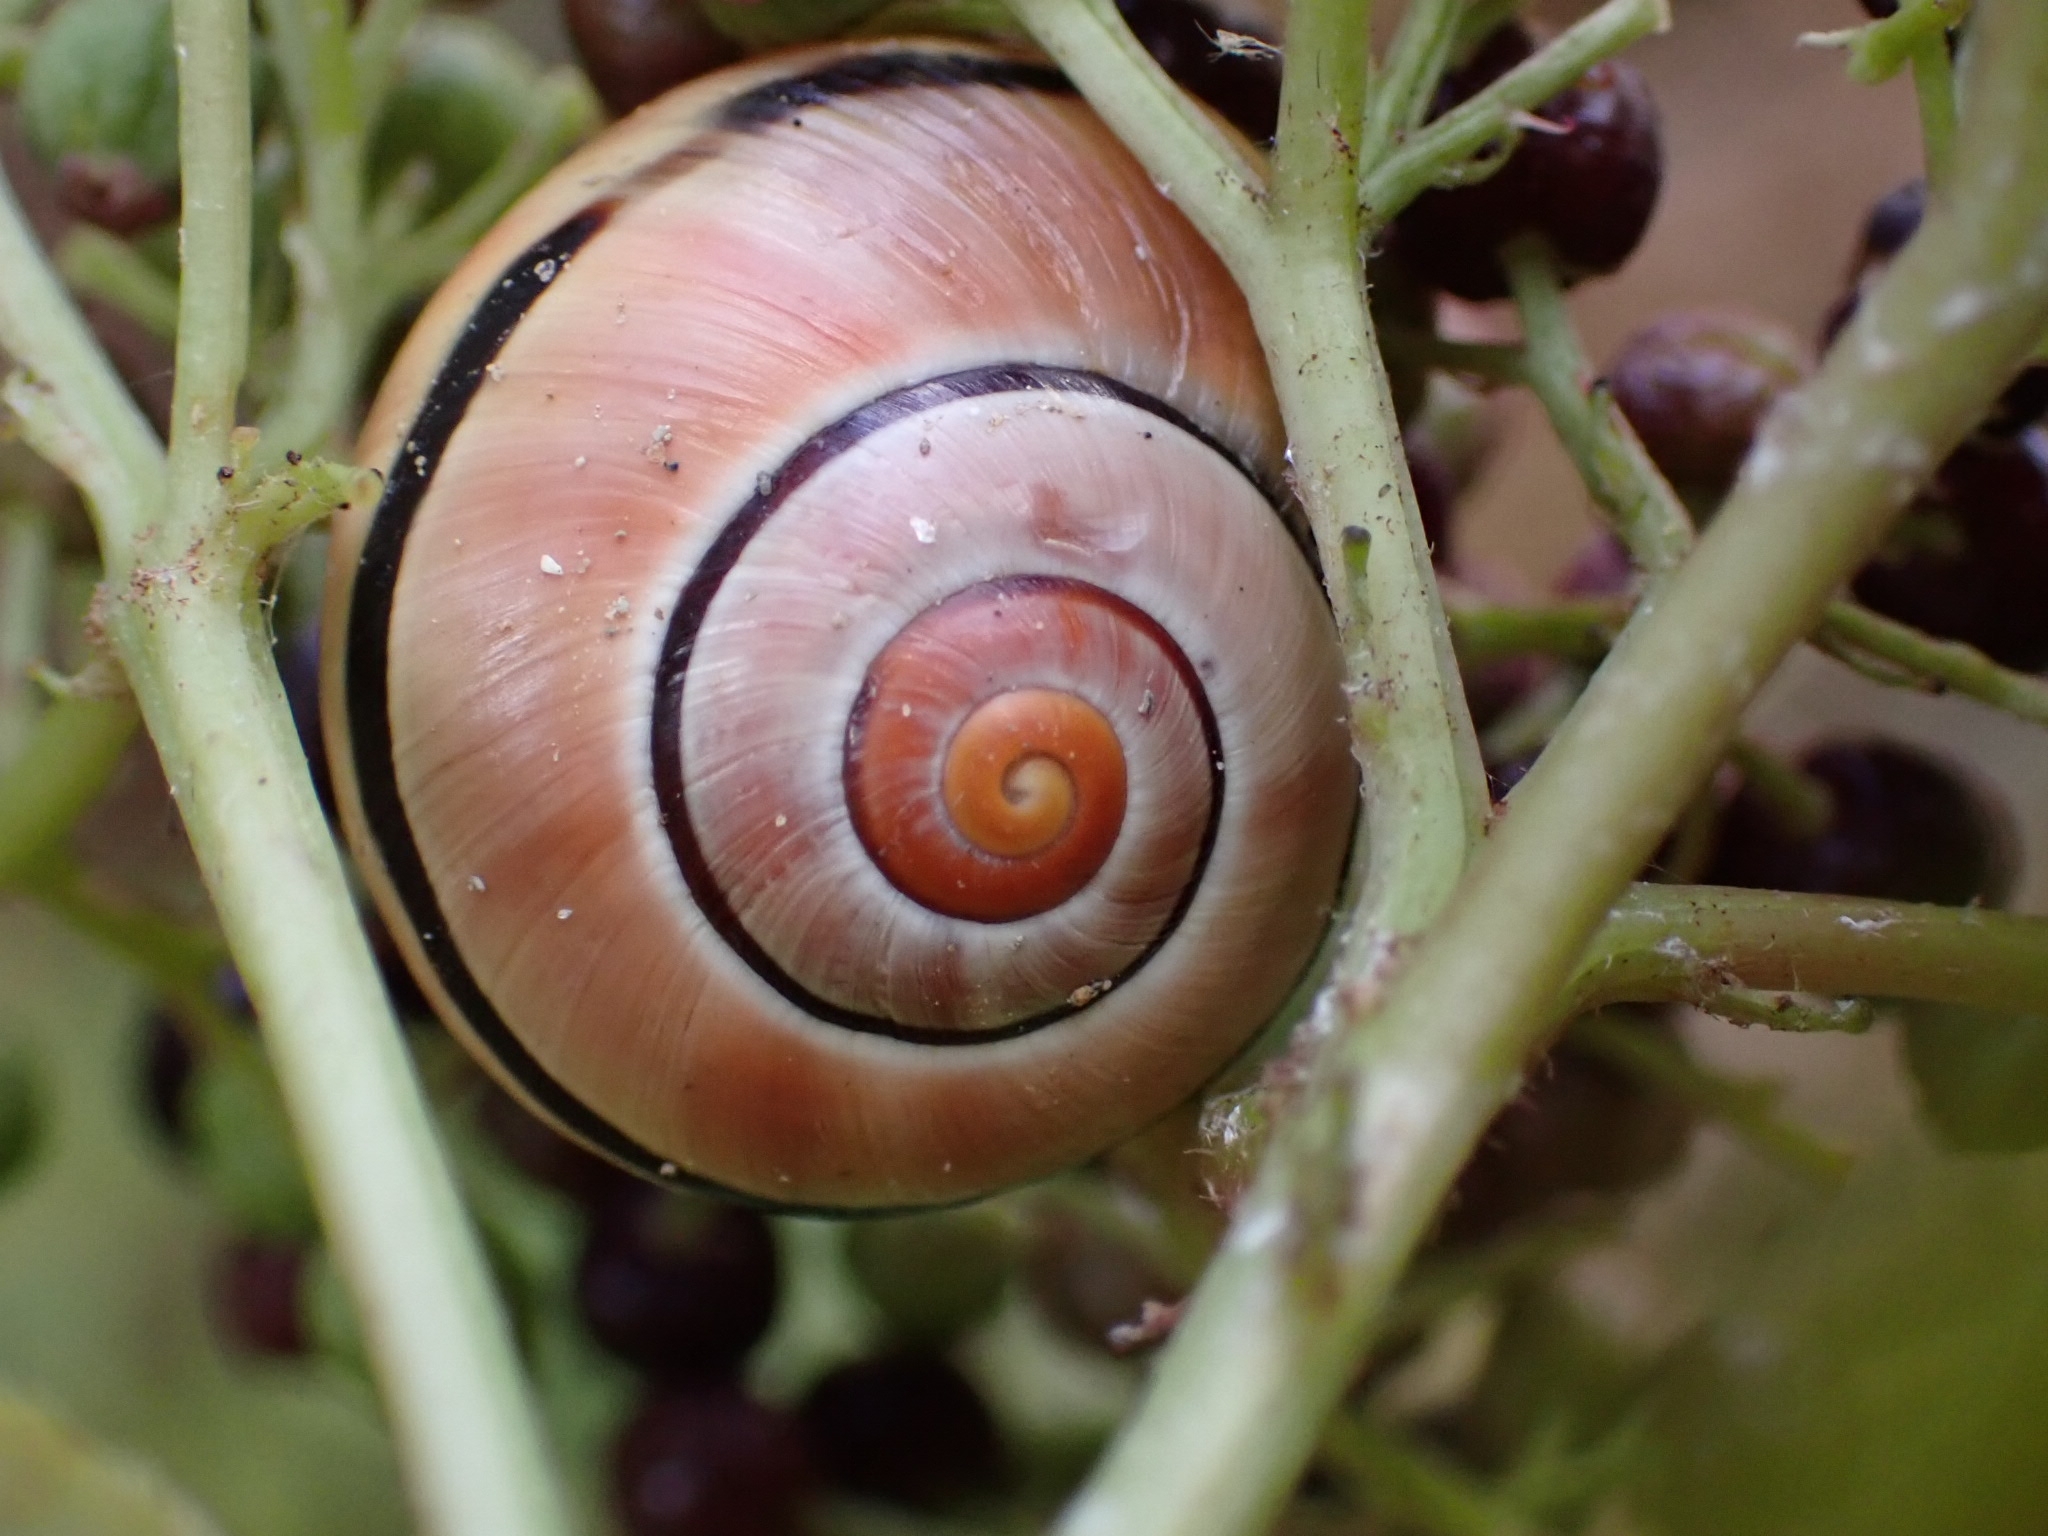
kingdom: Animalia
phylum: Mollusca
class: Gastropoda
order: Stylommatophora
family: Helicidae
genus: Cepaea
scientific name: Cepaea nemoralis
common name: Grovesnail
